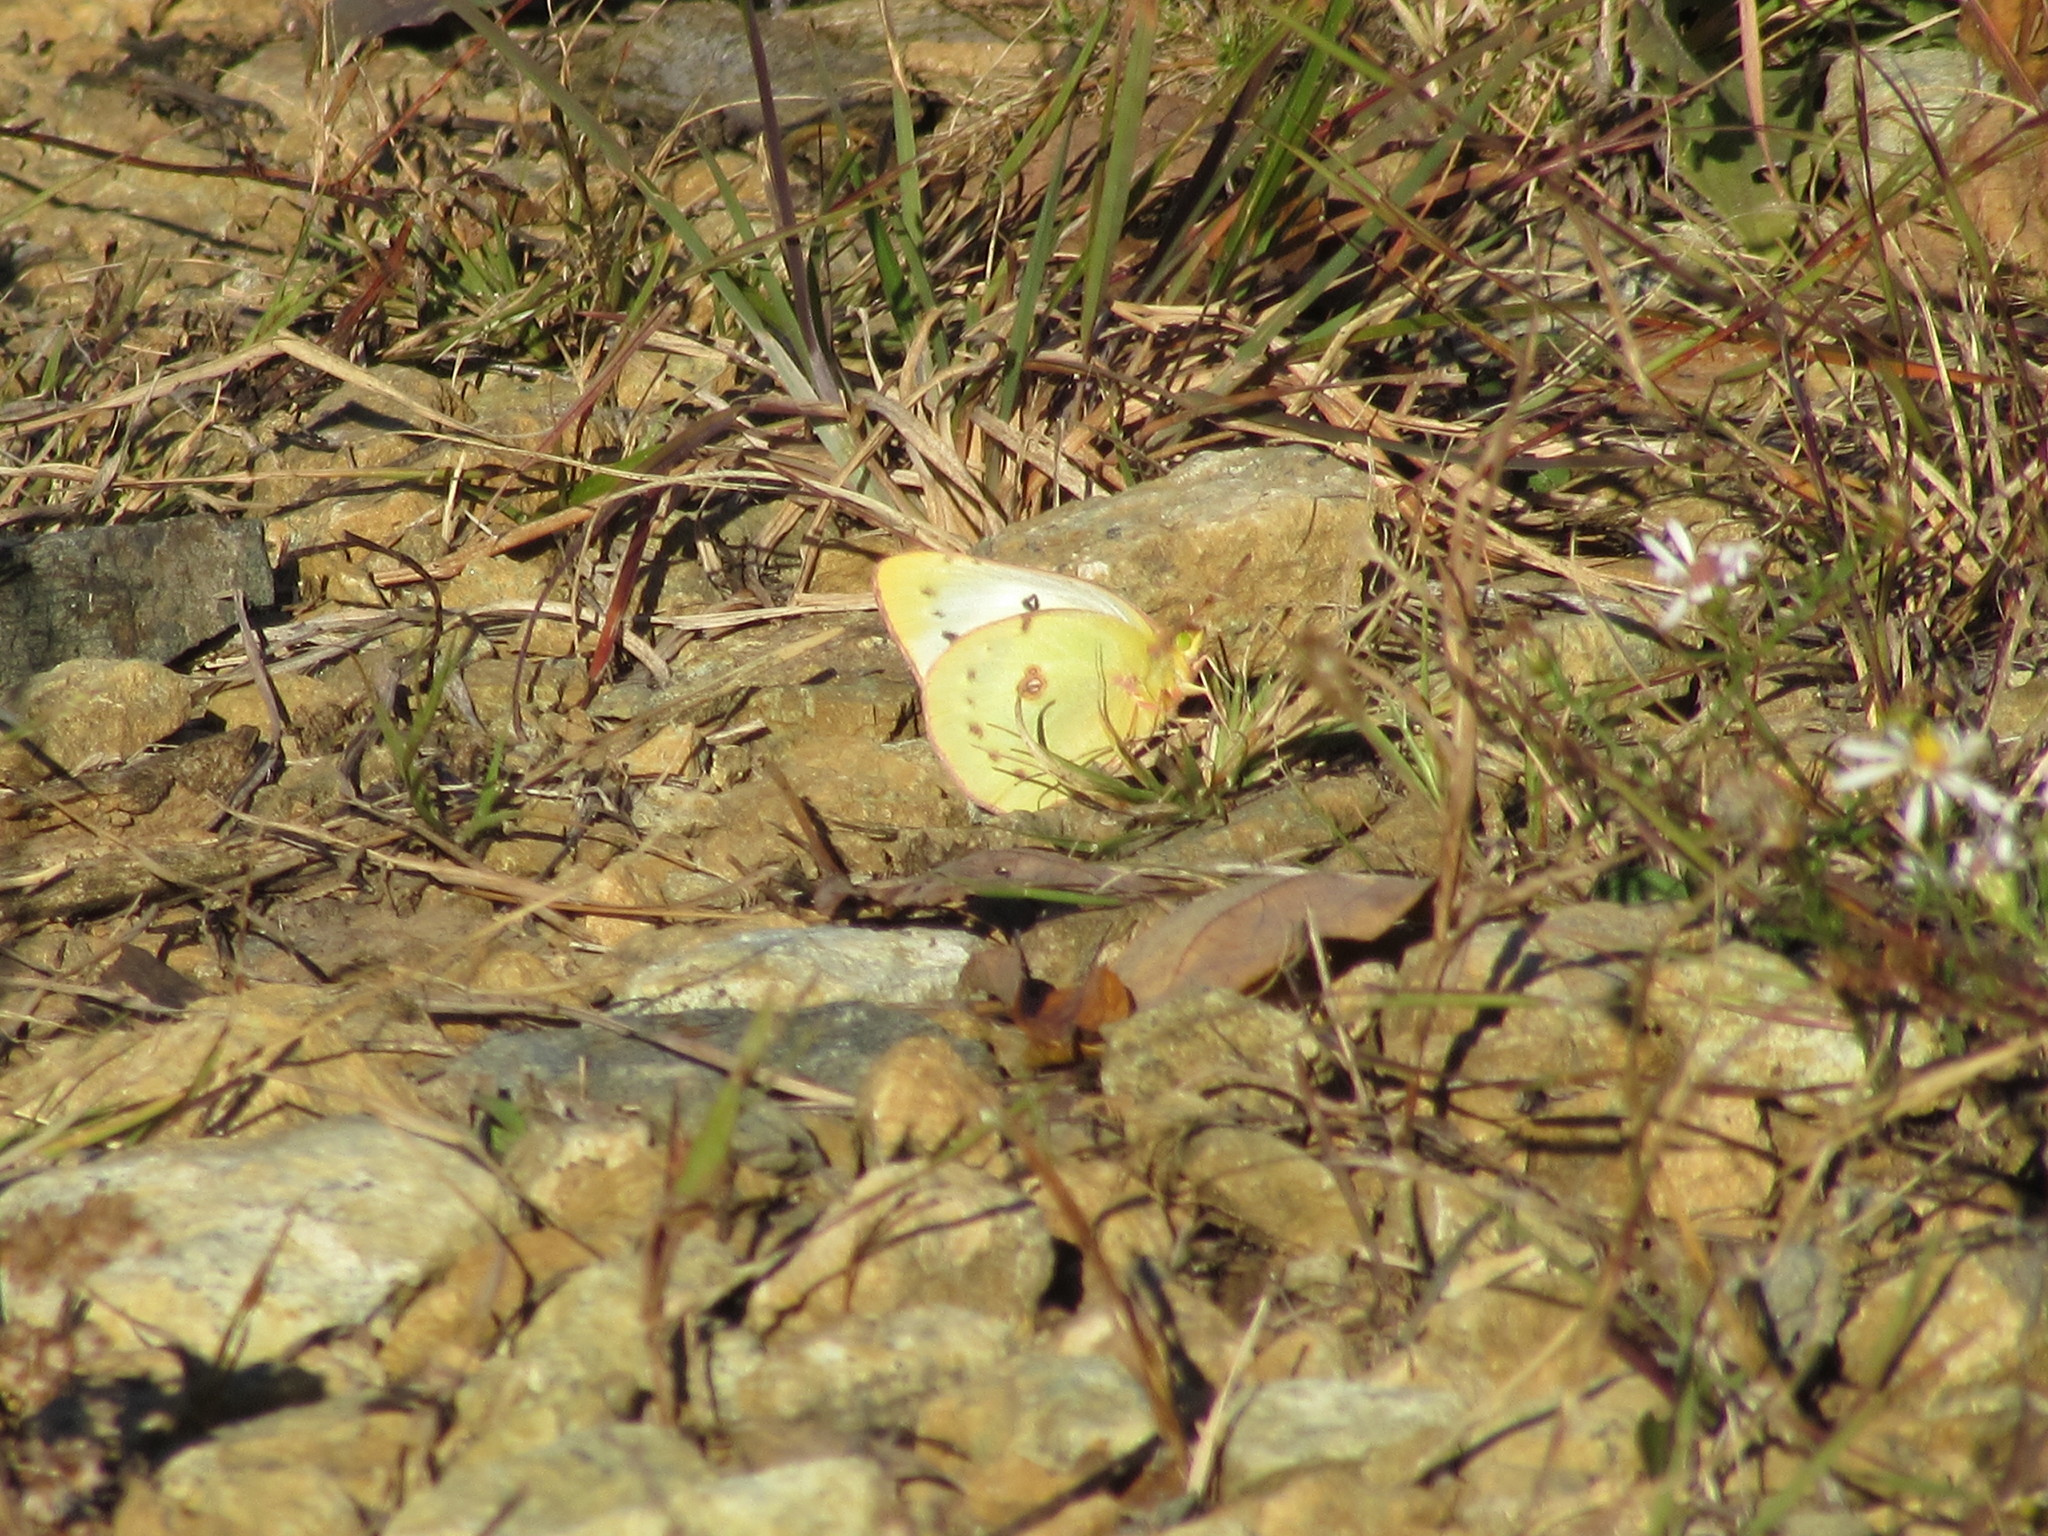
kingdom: Animalia
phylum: Arthropoda
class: Insecta
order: Lepidoptera
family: Pieridae
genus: Colias
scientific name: Colias eurytheme
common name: Alfalfa butterfly
